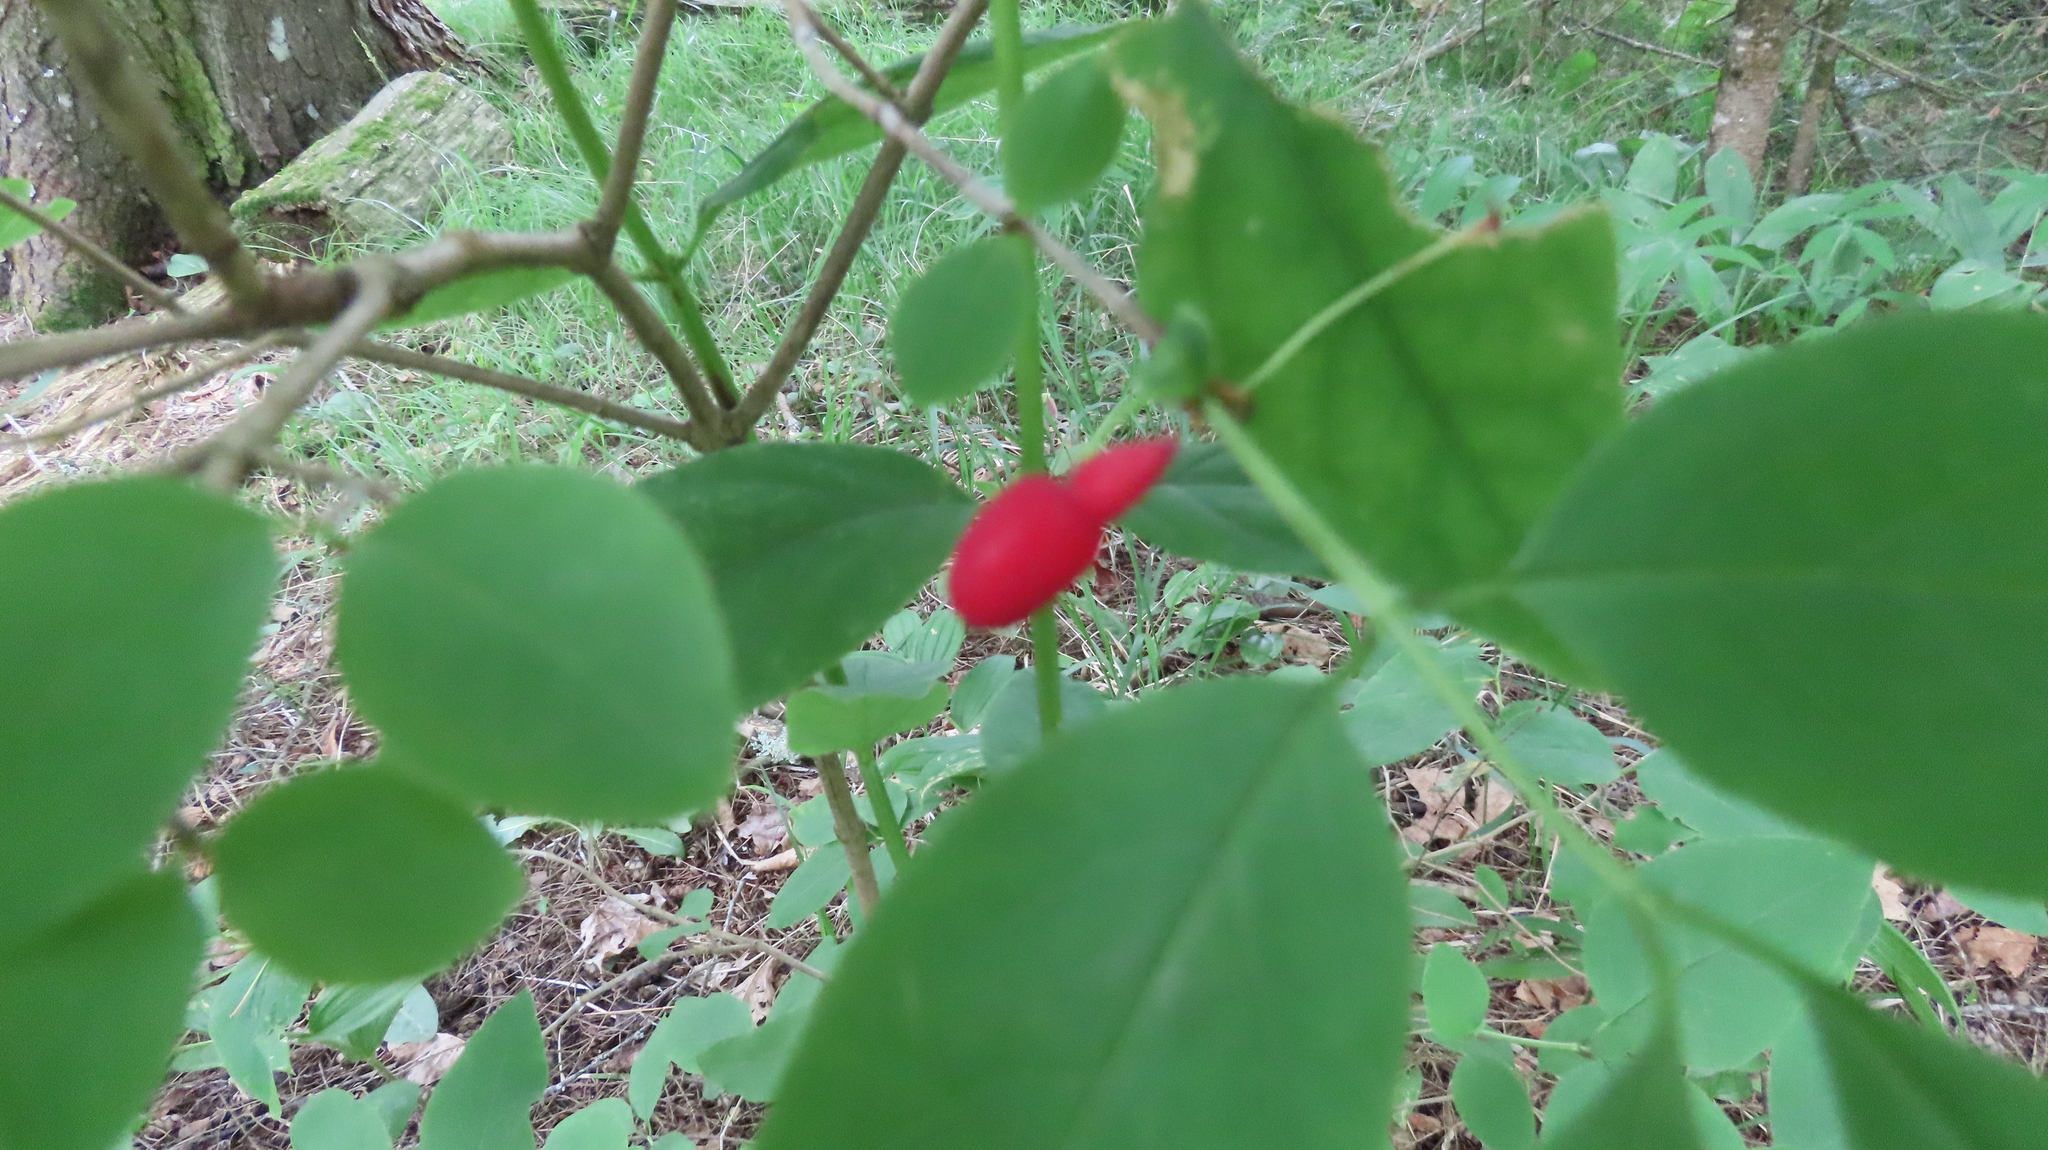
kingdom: Plantae
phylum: Tracheophyta
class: Magnoliopsida
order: Dipsacales
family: Caprifoliaceae
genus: Lonicera
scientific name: Lonicera canadensis
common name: American fly-honeysuckle
